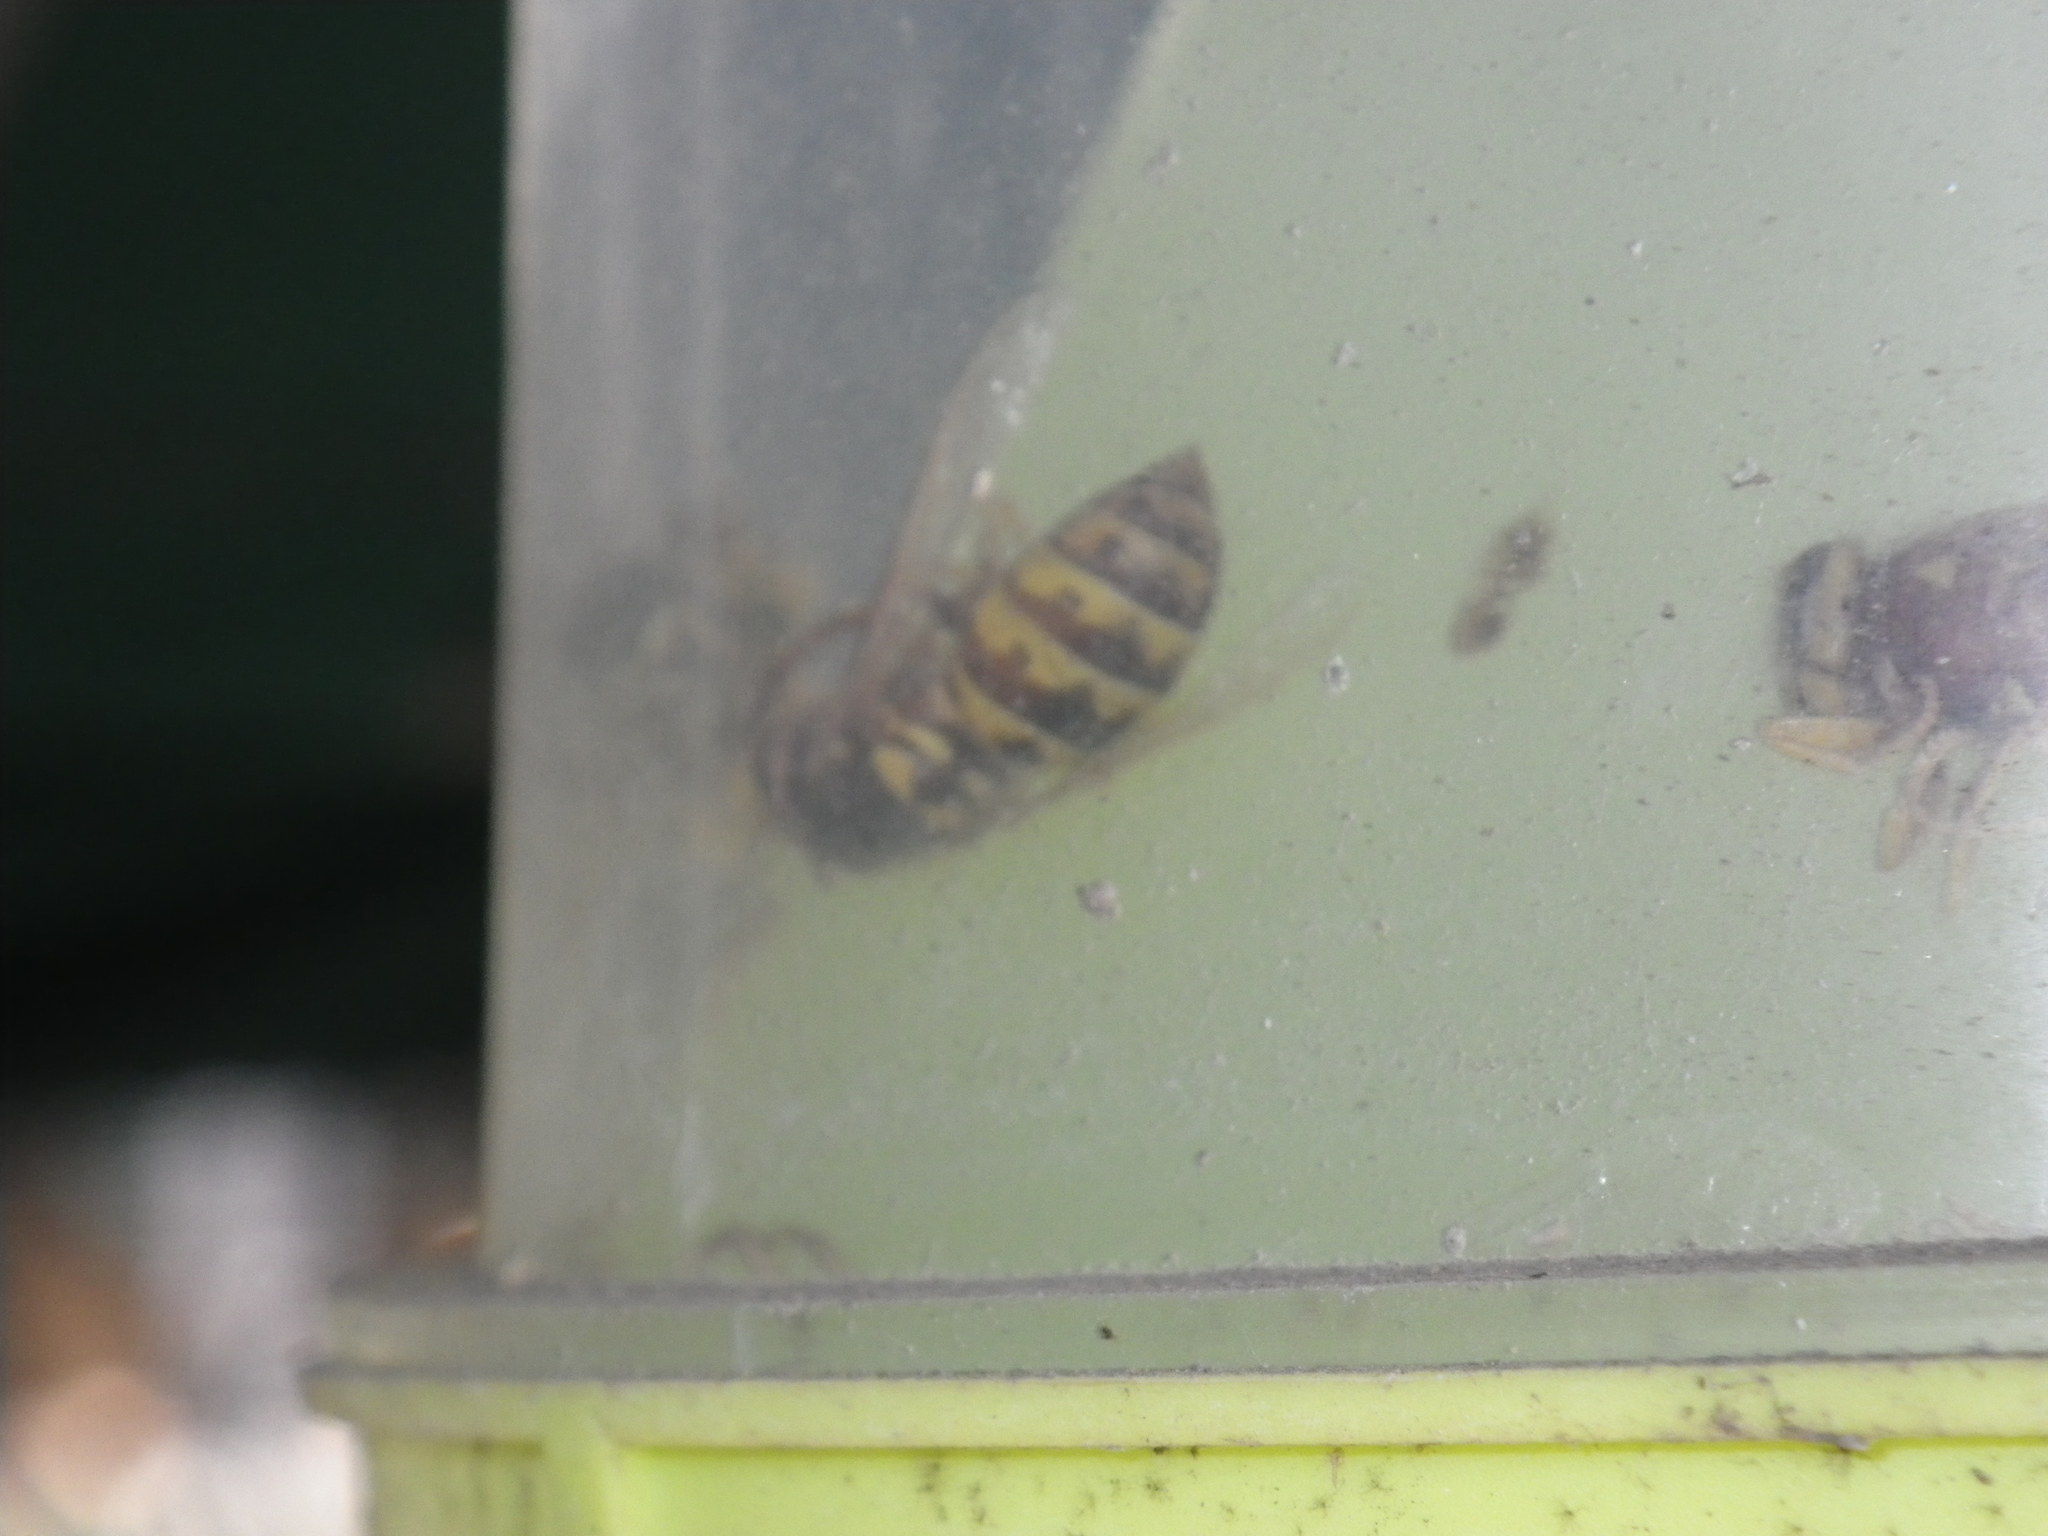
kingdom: Animalia
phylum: Arthropoda
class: Insecta
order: Hymenoptera
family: Vespidae
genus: Vespula
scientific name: Vespula
